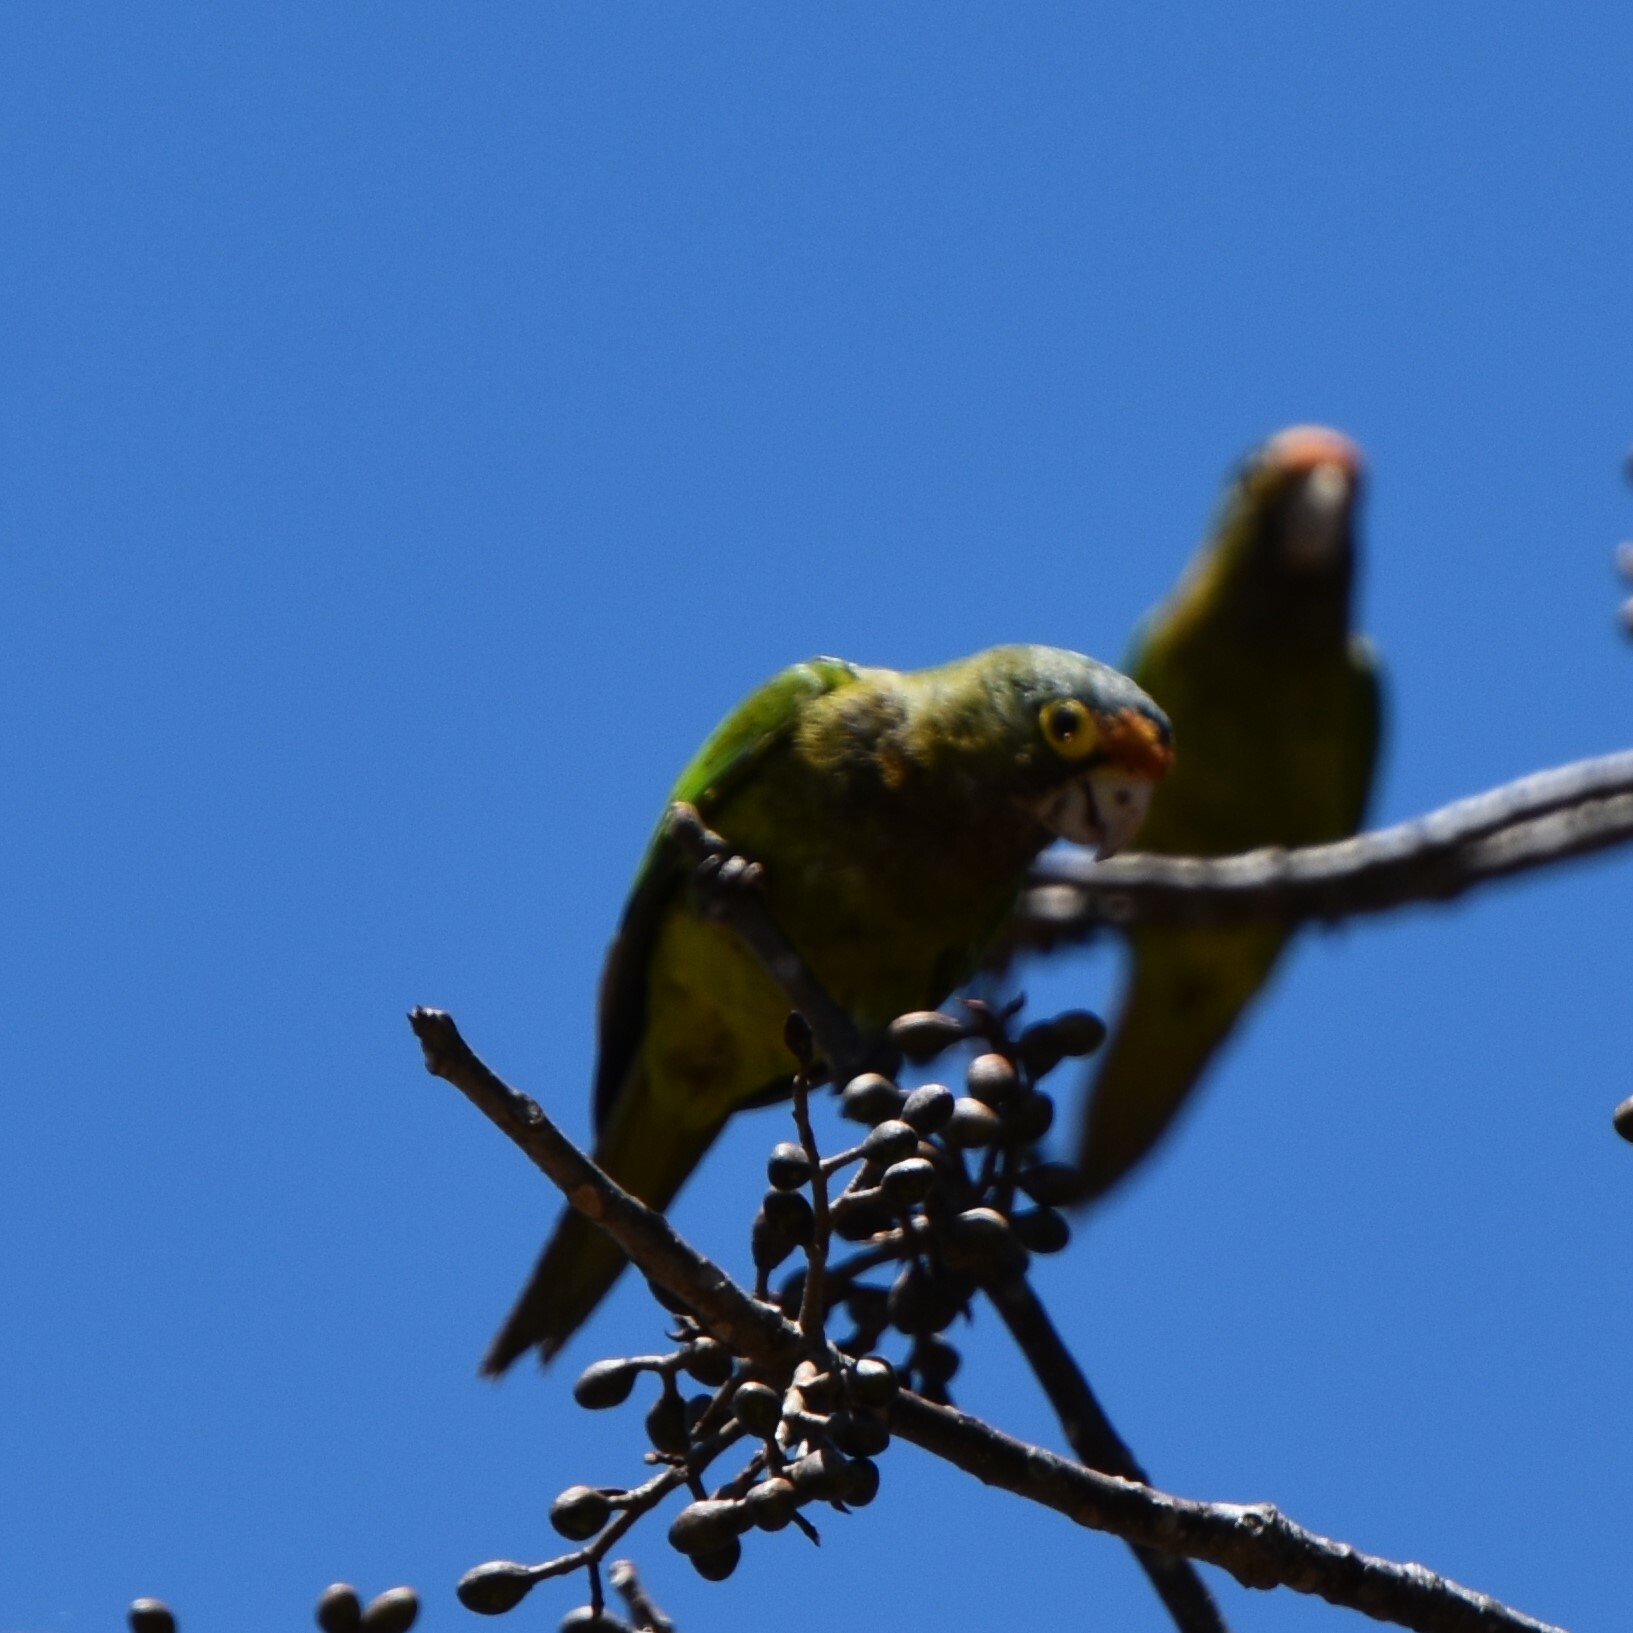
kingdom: Animalia
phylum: Chordata
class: Aves
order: Psittaciformes
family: Psittacidae
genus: Aratinga
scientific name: Aratinga canicularis
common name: Orange-fronted parakeet
